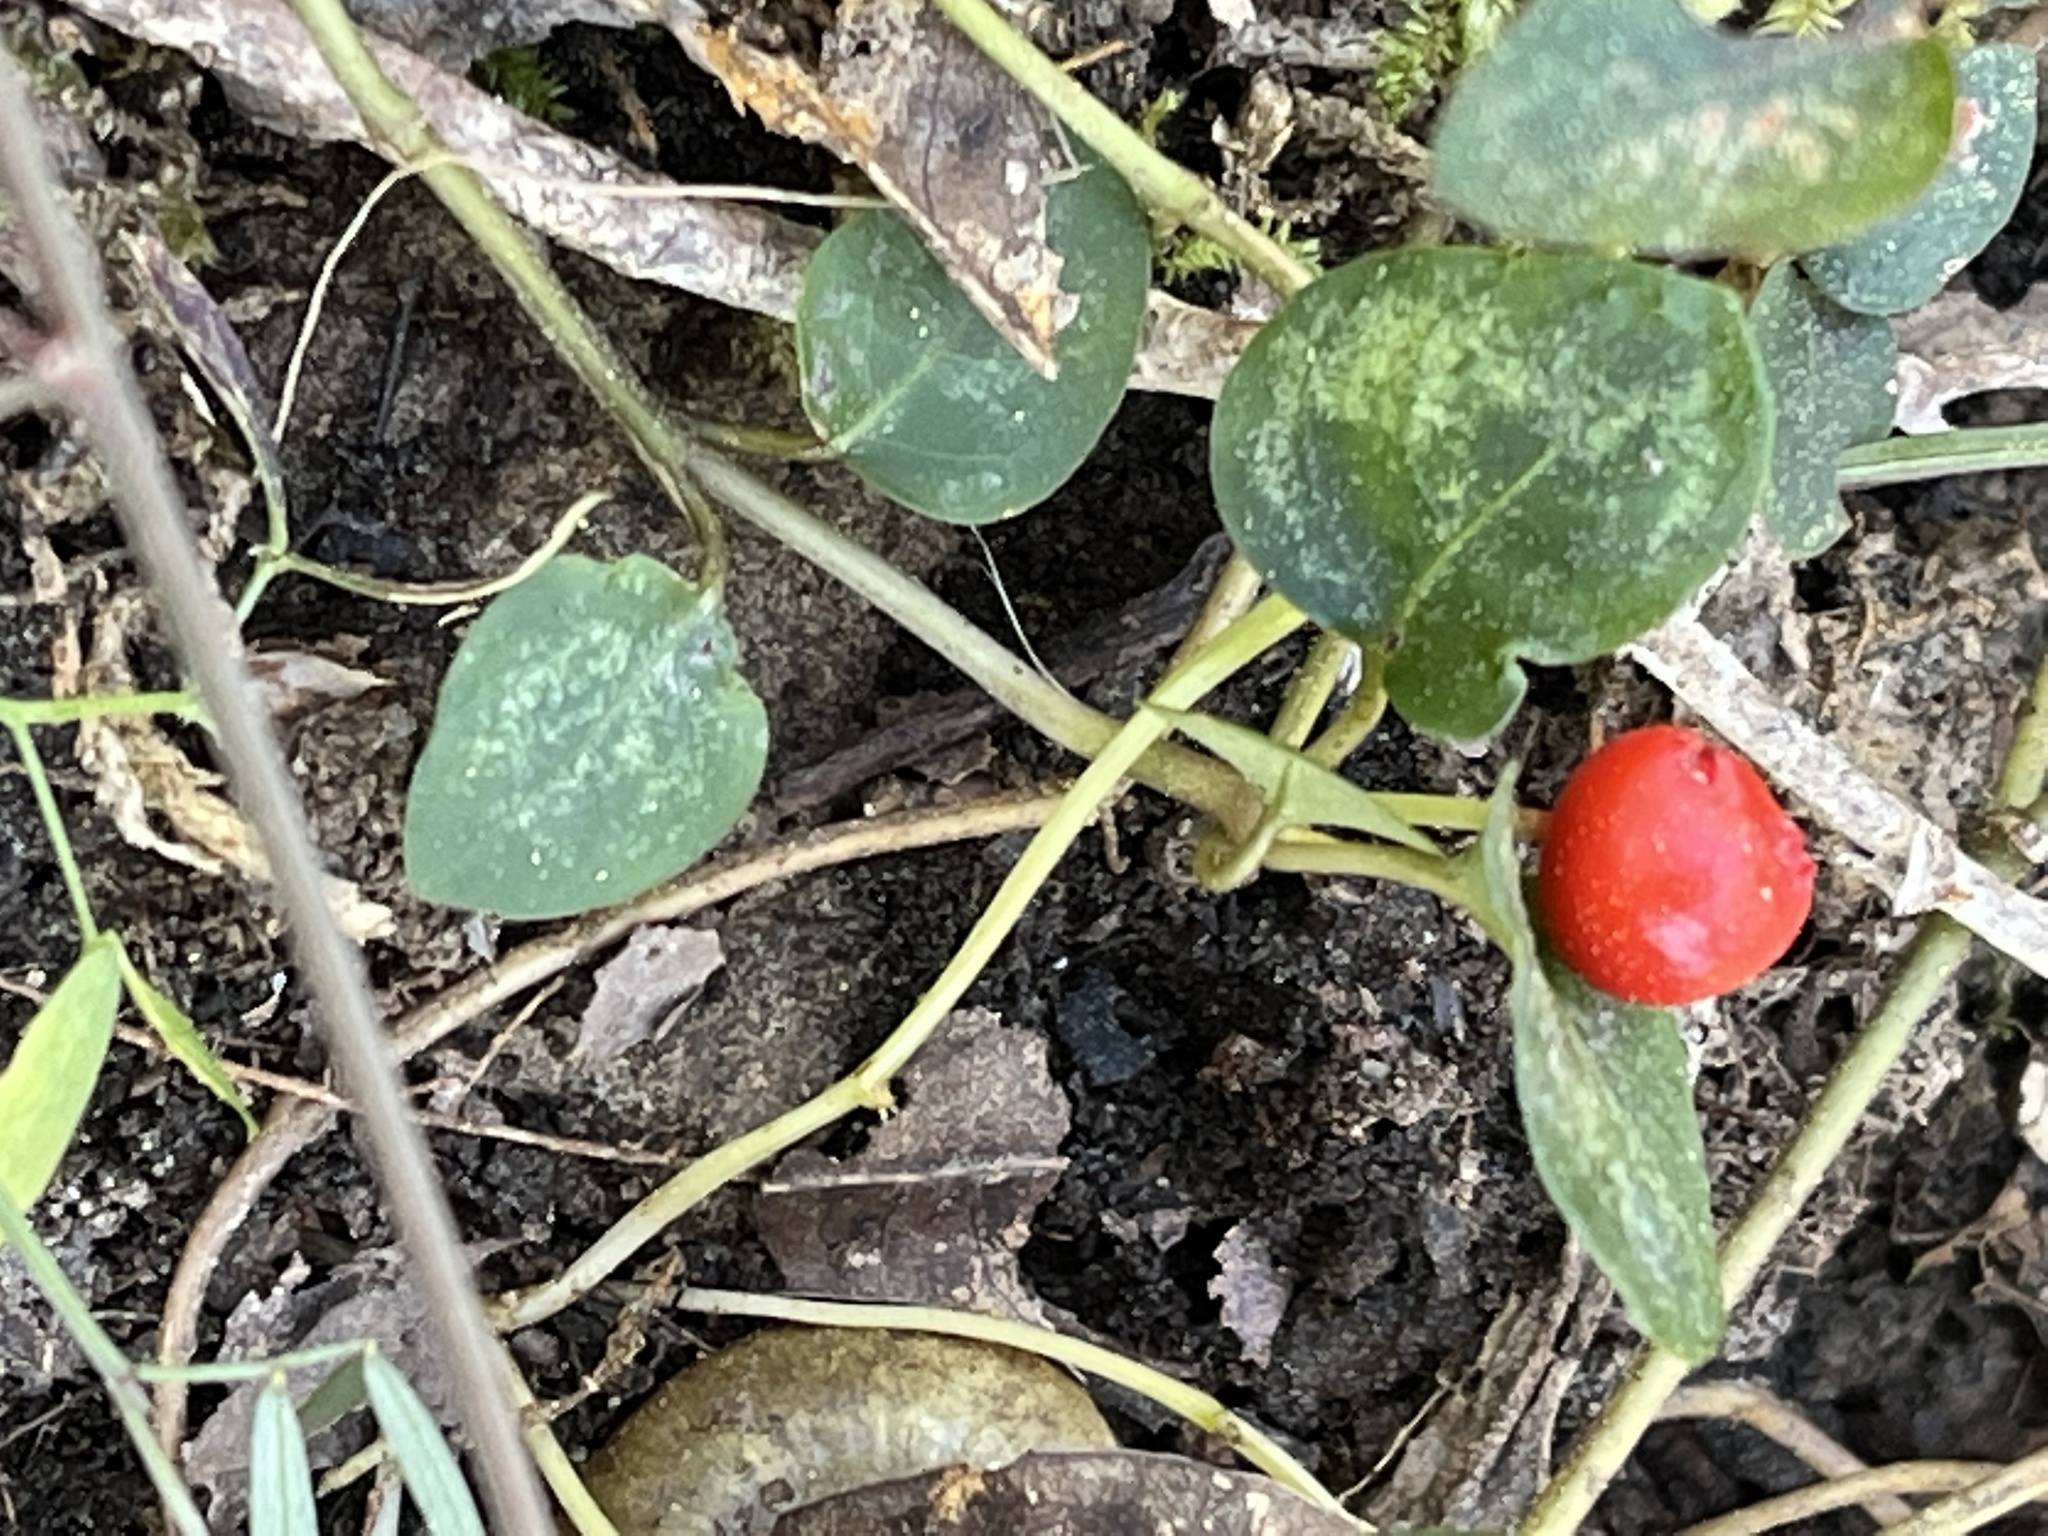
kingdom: Plantae
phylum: Tracheophyta
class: Magnoliopsida
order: Gentianales
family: Rubiaceae
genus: Mitchella
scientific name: Mitchella repens
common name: Partridge-berry
